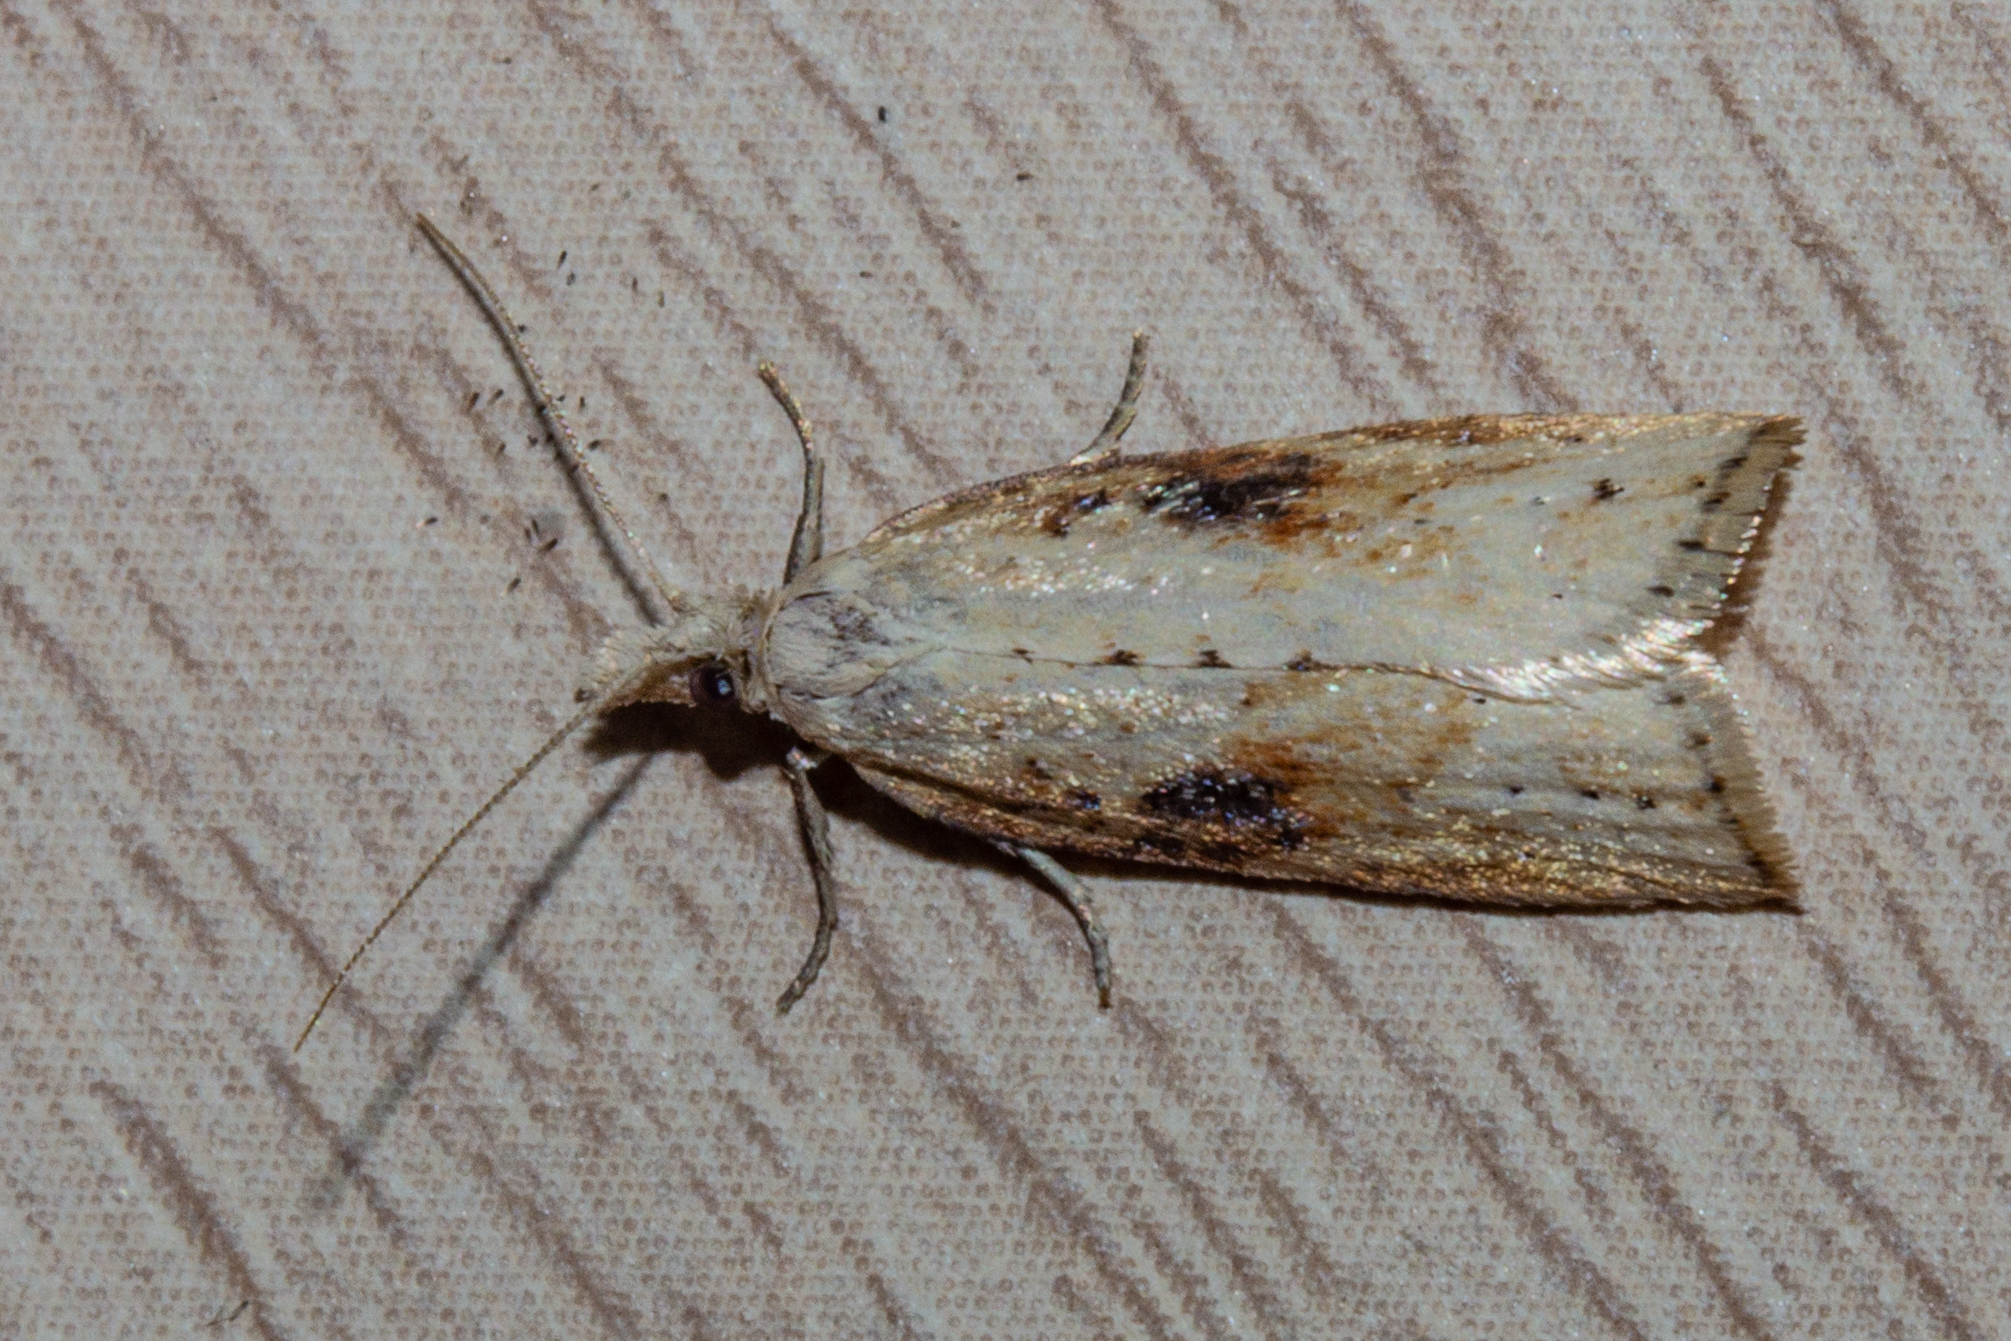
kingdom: Animalia
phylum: Arthropoda
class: Insecta
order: Lepidoptera
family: Tortricidae
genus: Apoctena
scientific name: Apoctena persecta
